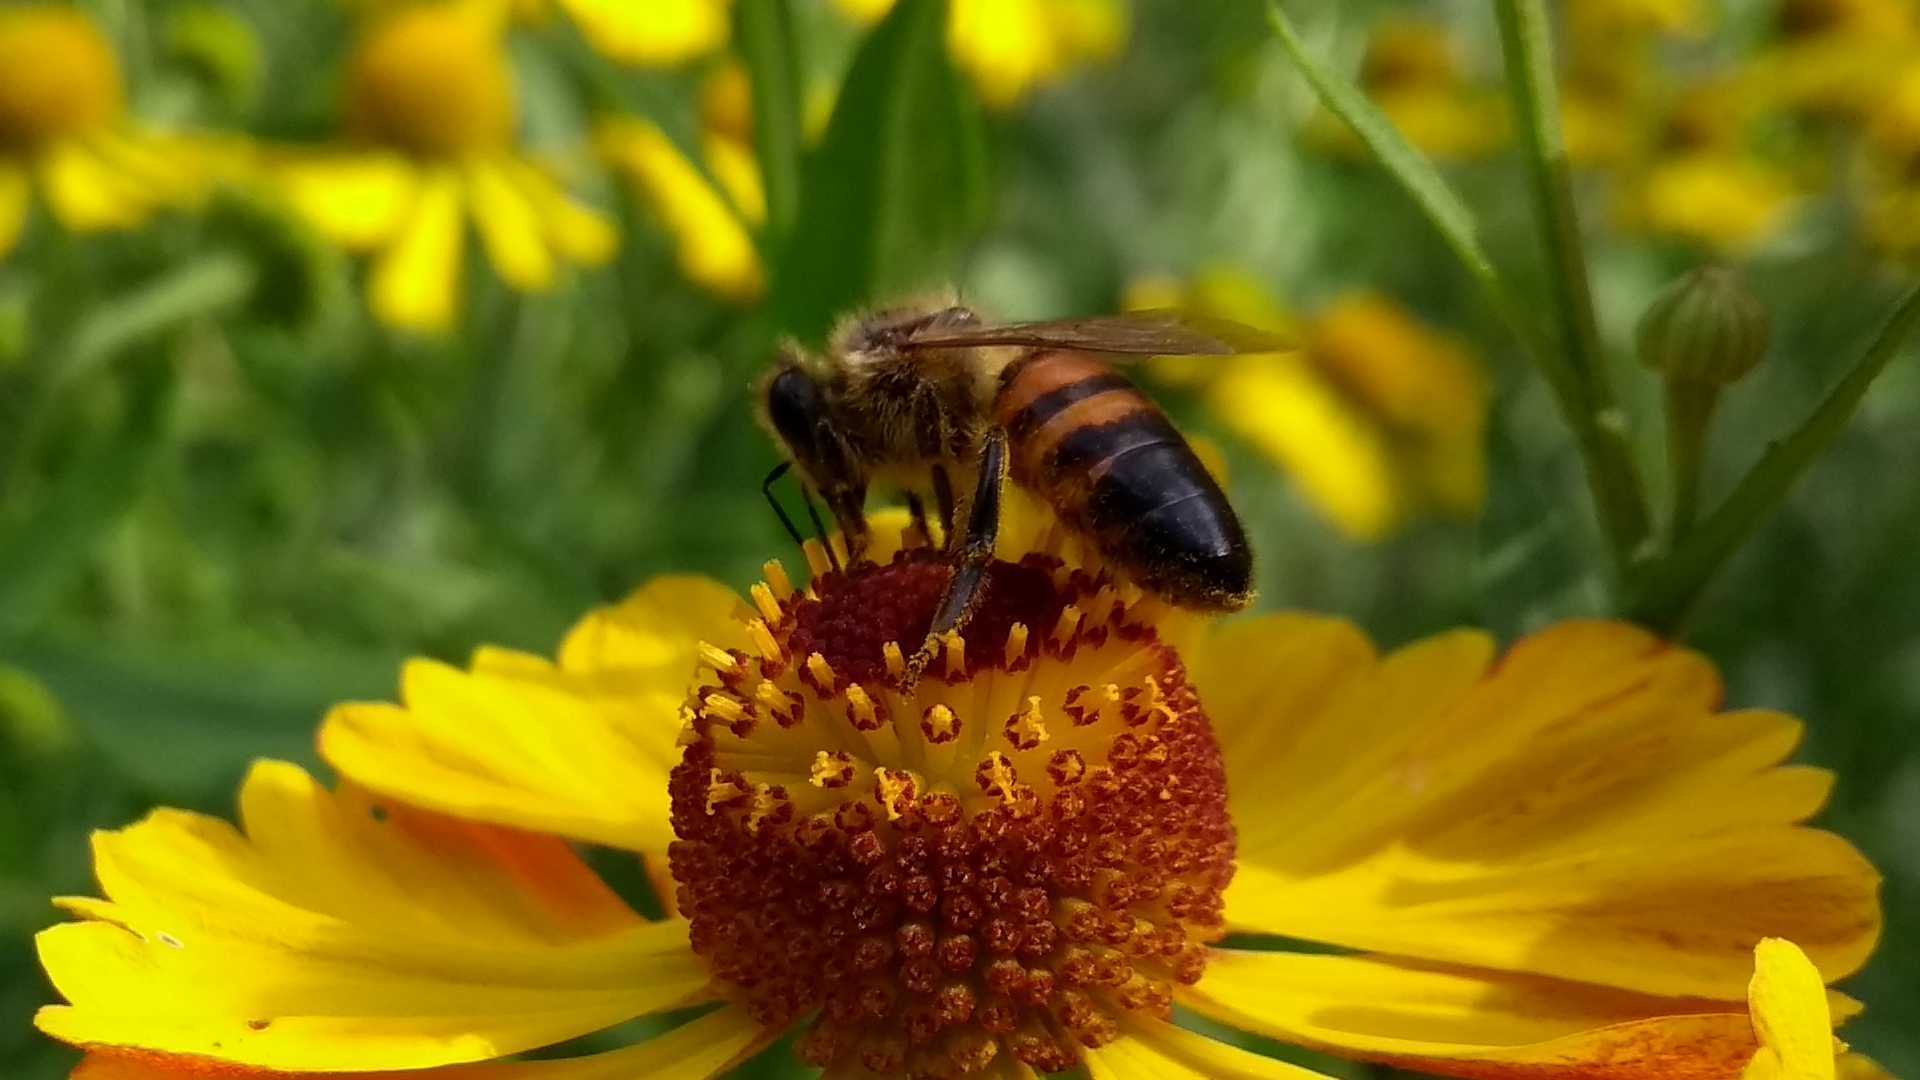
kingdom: Animalia
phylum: Arthropoda
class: Insecta
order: Hymenoptera
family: Apidae
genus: Apis
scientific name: Apis mellifera
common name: Honey bee
